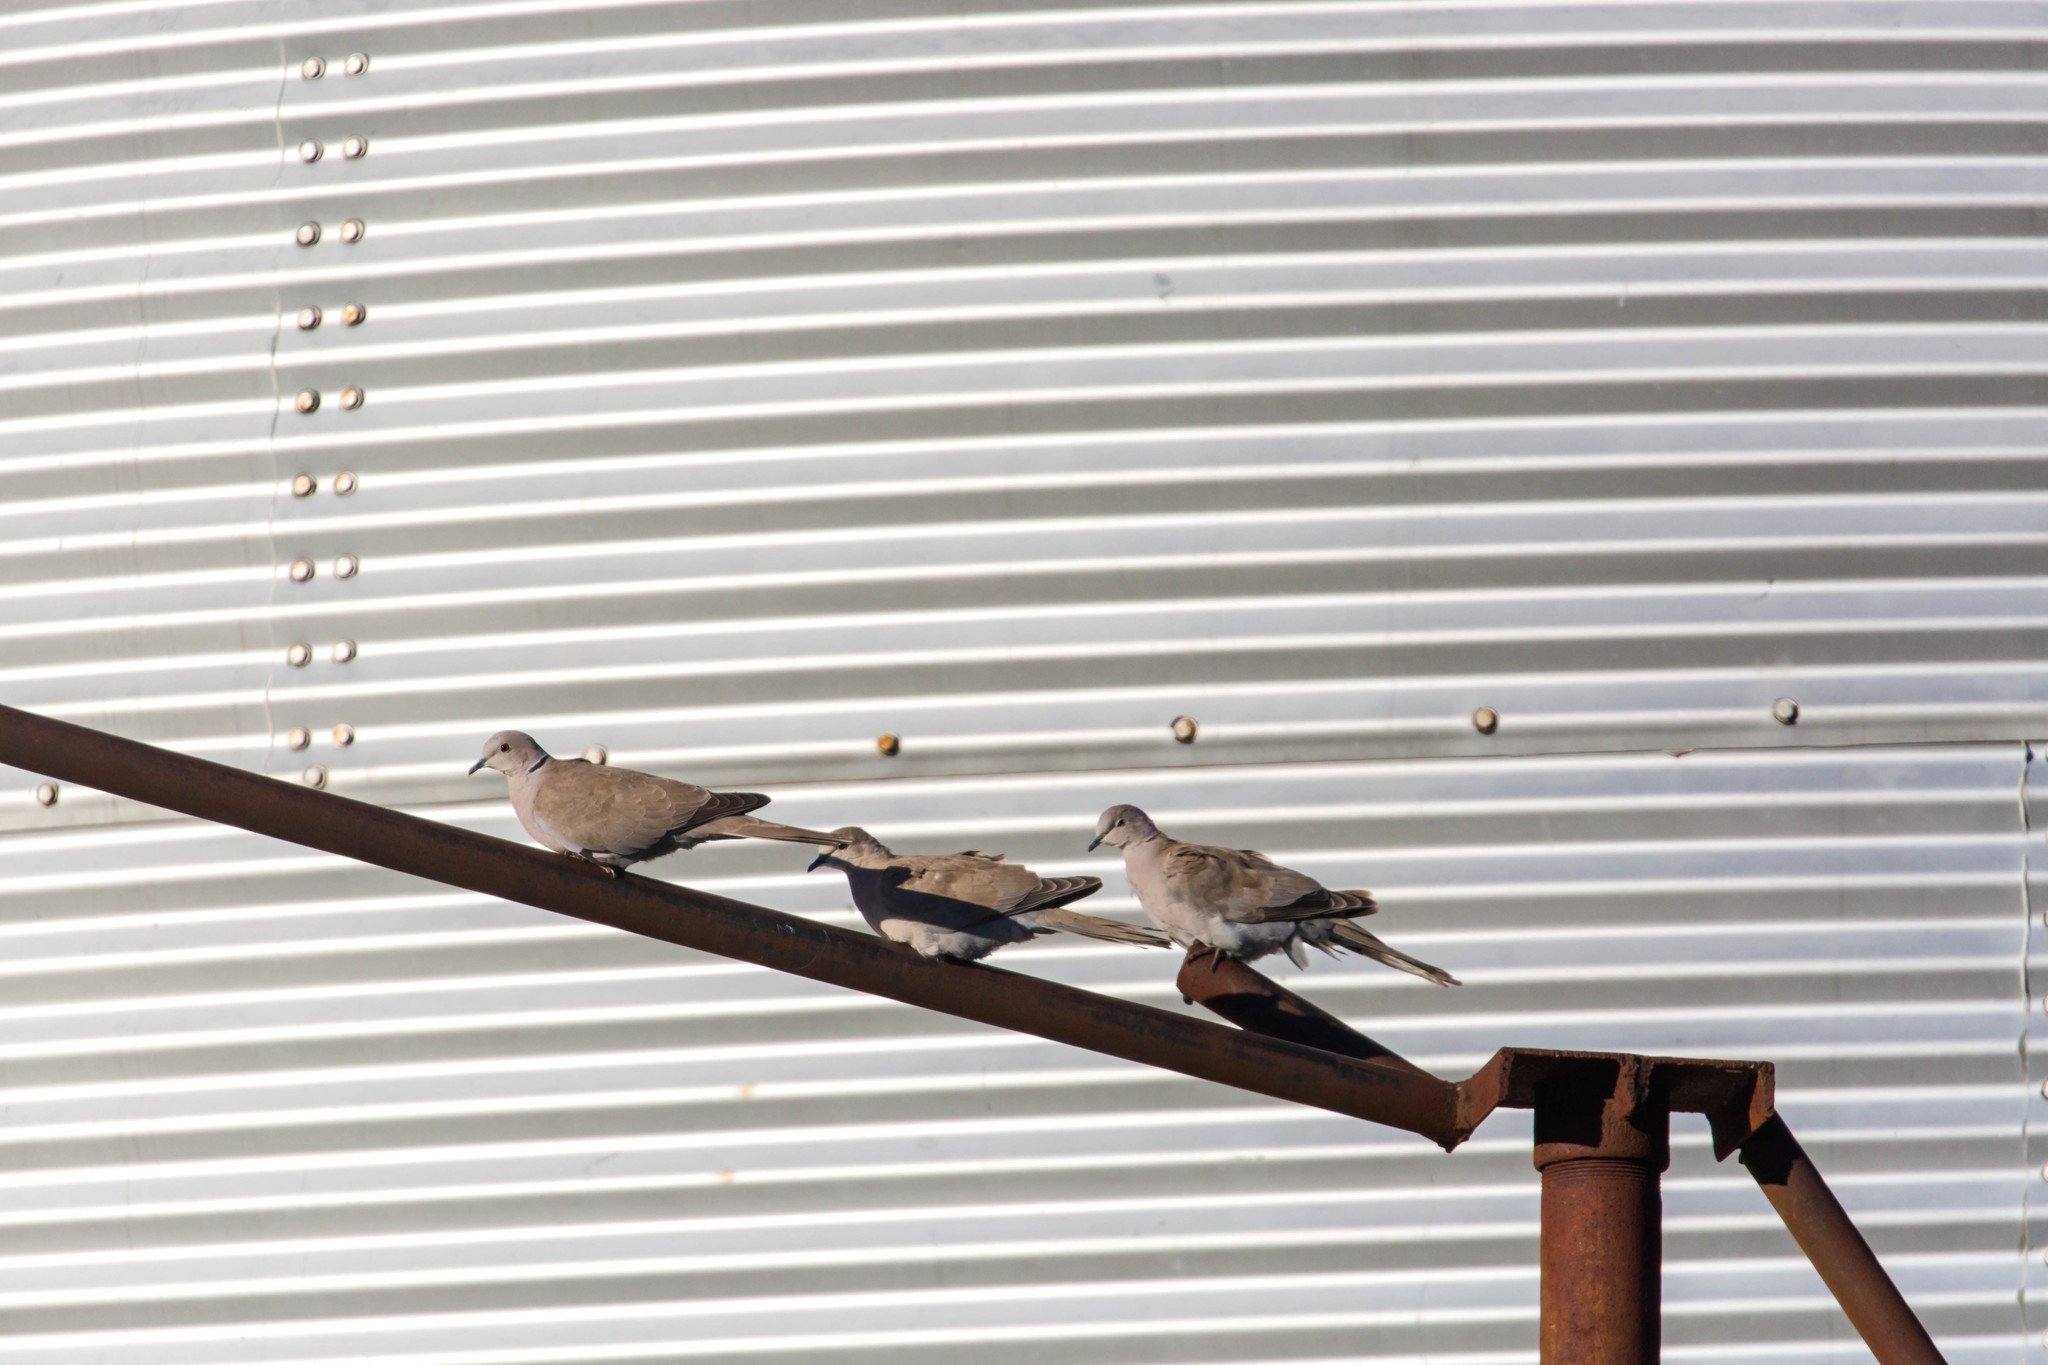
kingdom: Animalia
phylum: Chordata
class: Aves
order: Columbiformes
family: Columbidae
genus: Streptopelia
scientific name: Streptopelia decaocto
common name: Eurasian collared dove
